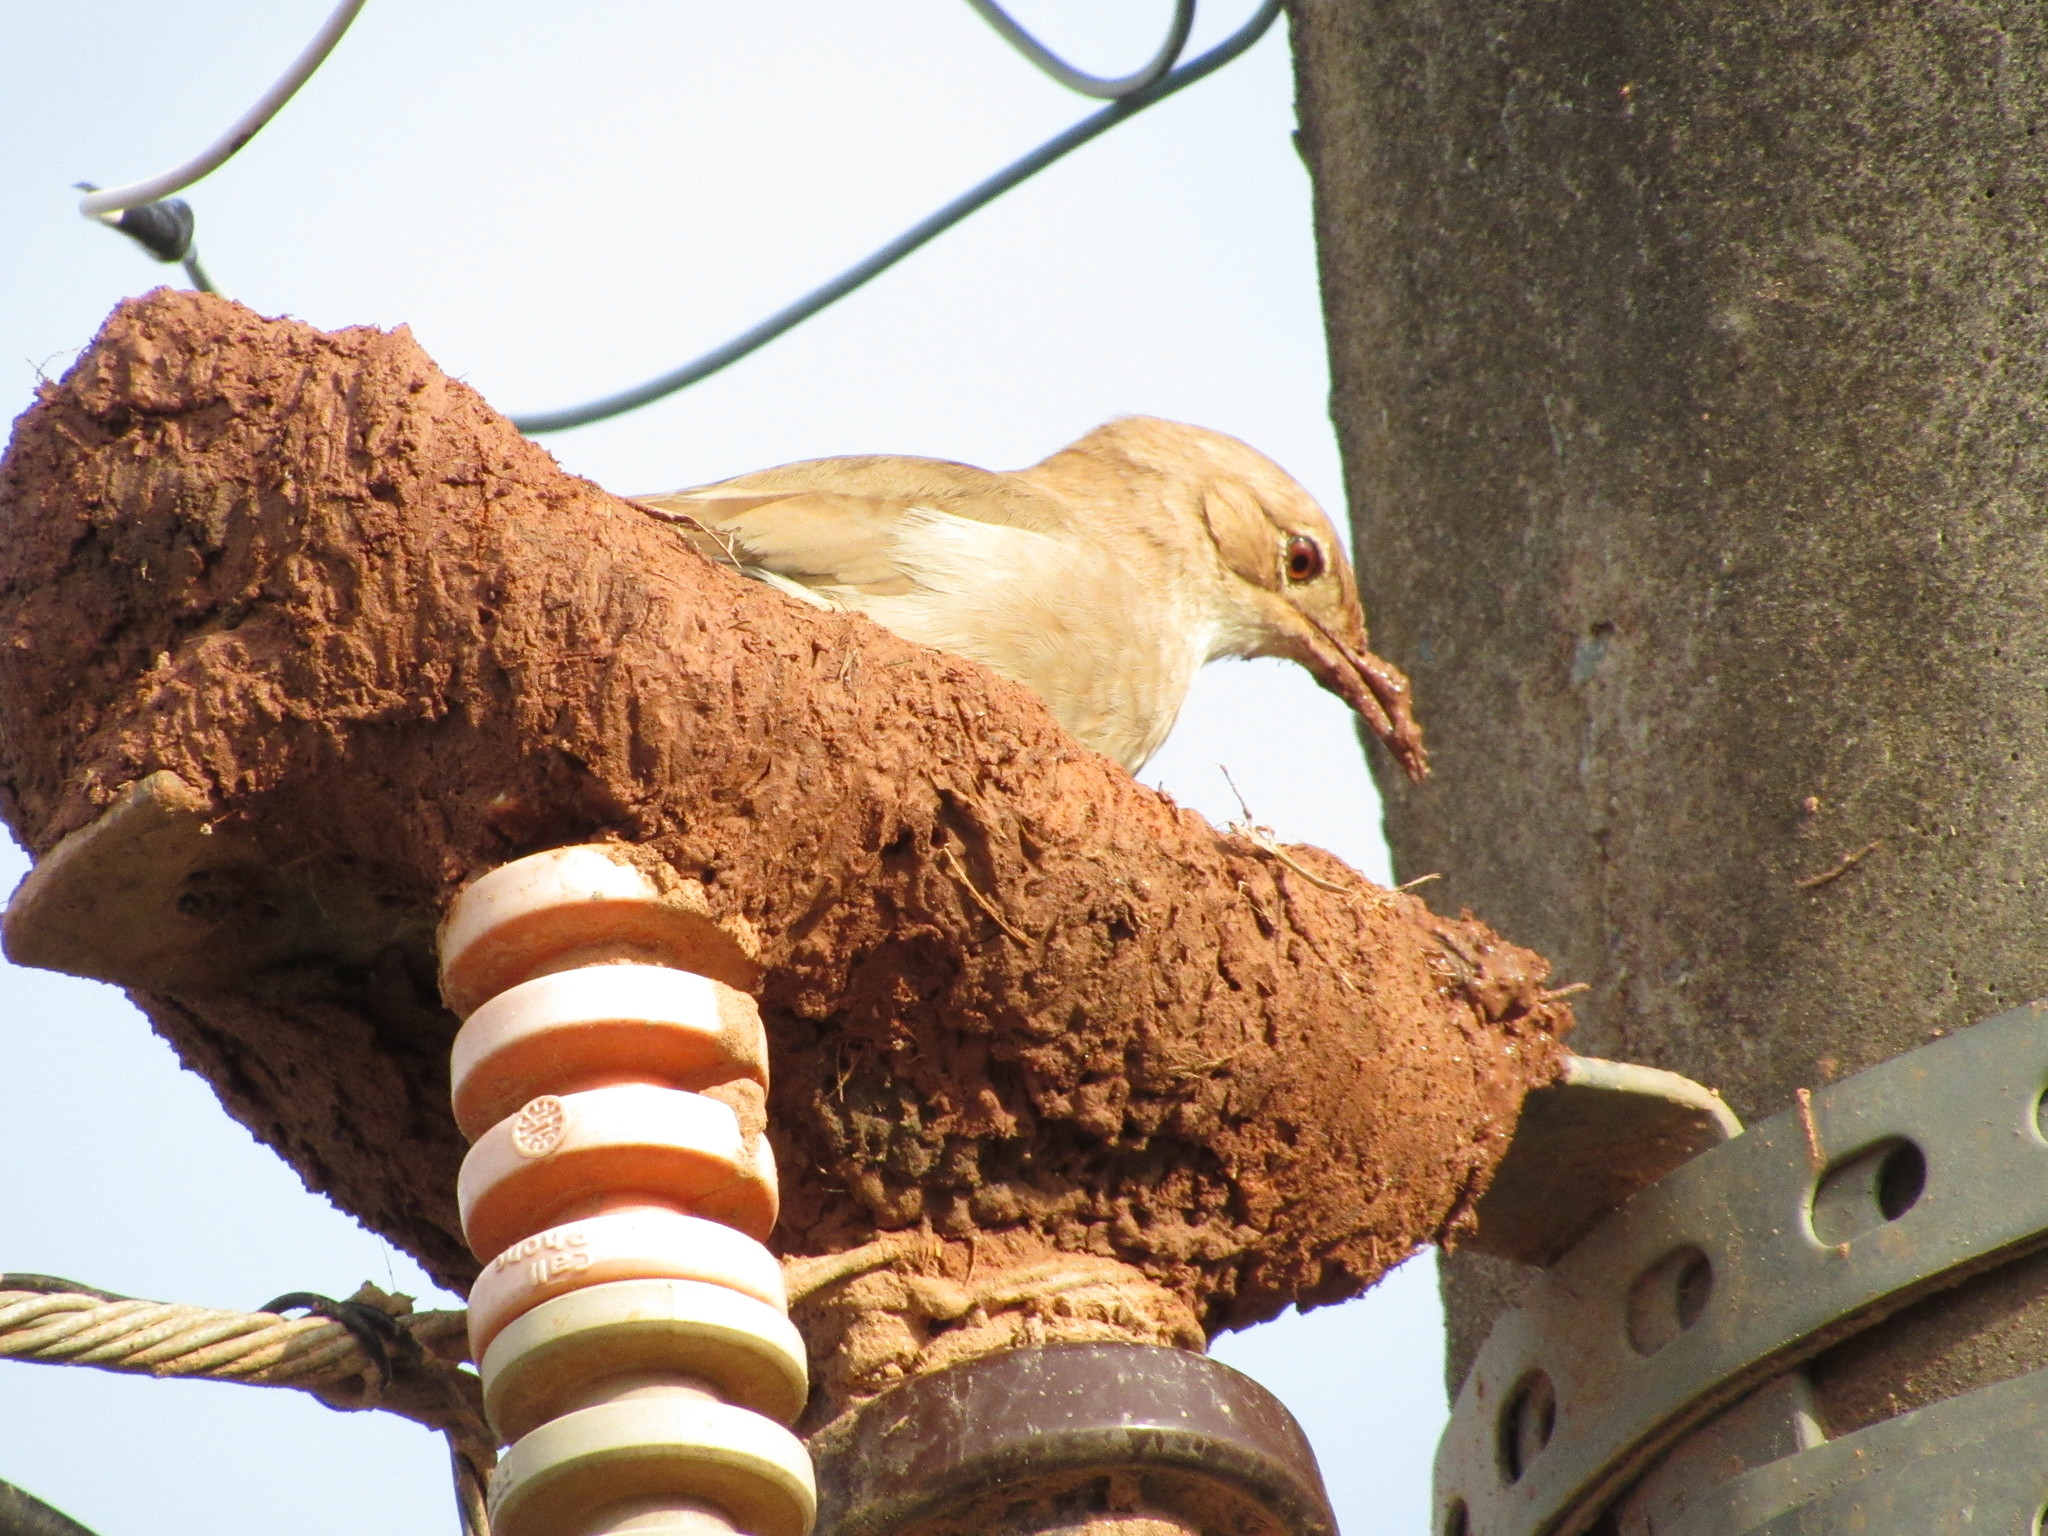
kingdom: Animalia
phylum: Chordata
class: Aves
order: Passeriformes
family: Furnariidae
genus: Furnarius
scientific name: Furnarius rufus
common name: Rufous hornero
